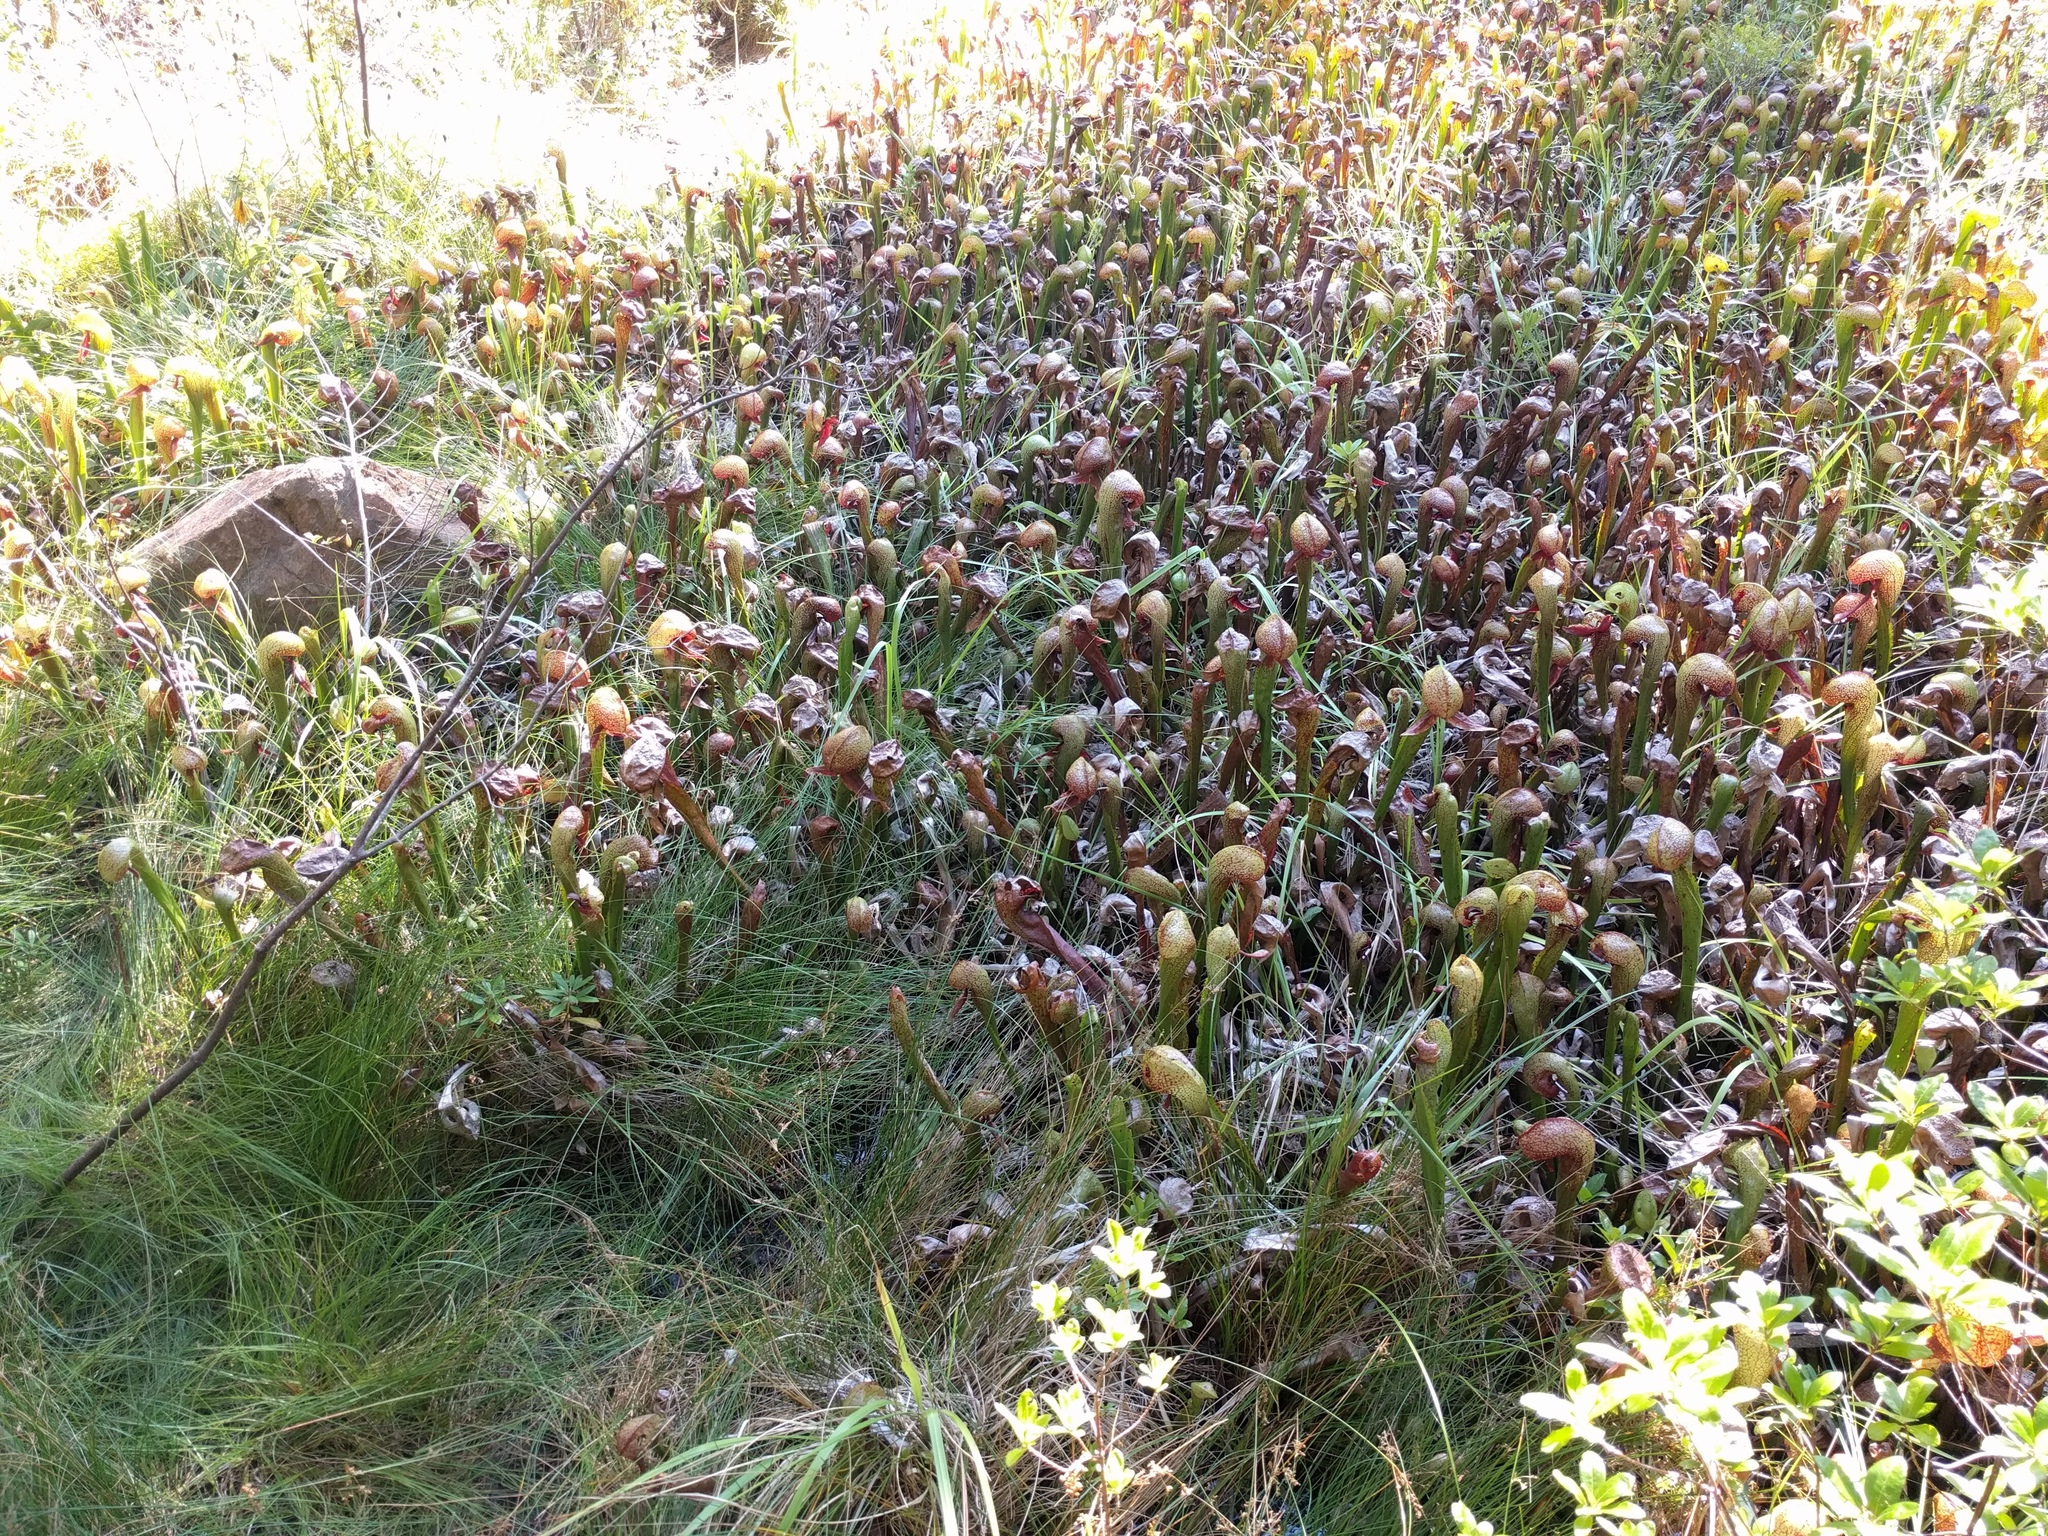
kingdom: Plantae
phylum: Tracheophyta
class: Magnoliopsida
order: Ericales
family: Sarraceniaceae
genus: Darlingtonia
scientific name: Darlingtonia californica
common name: California pitcher plant
